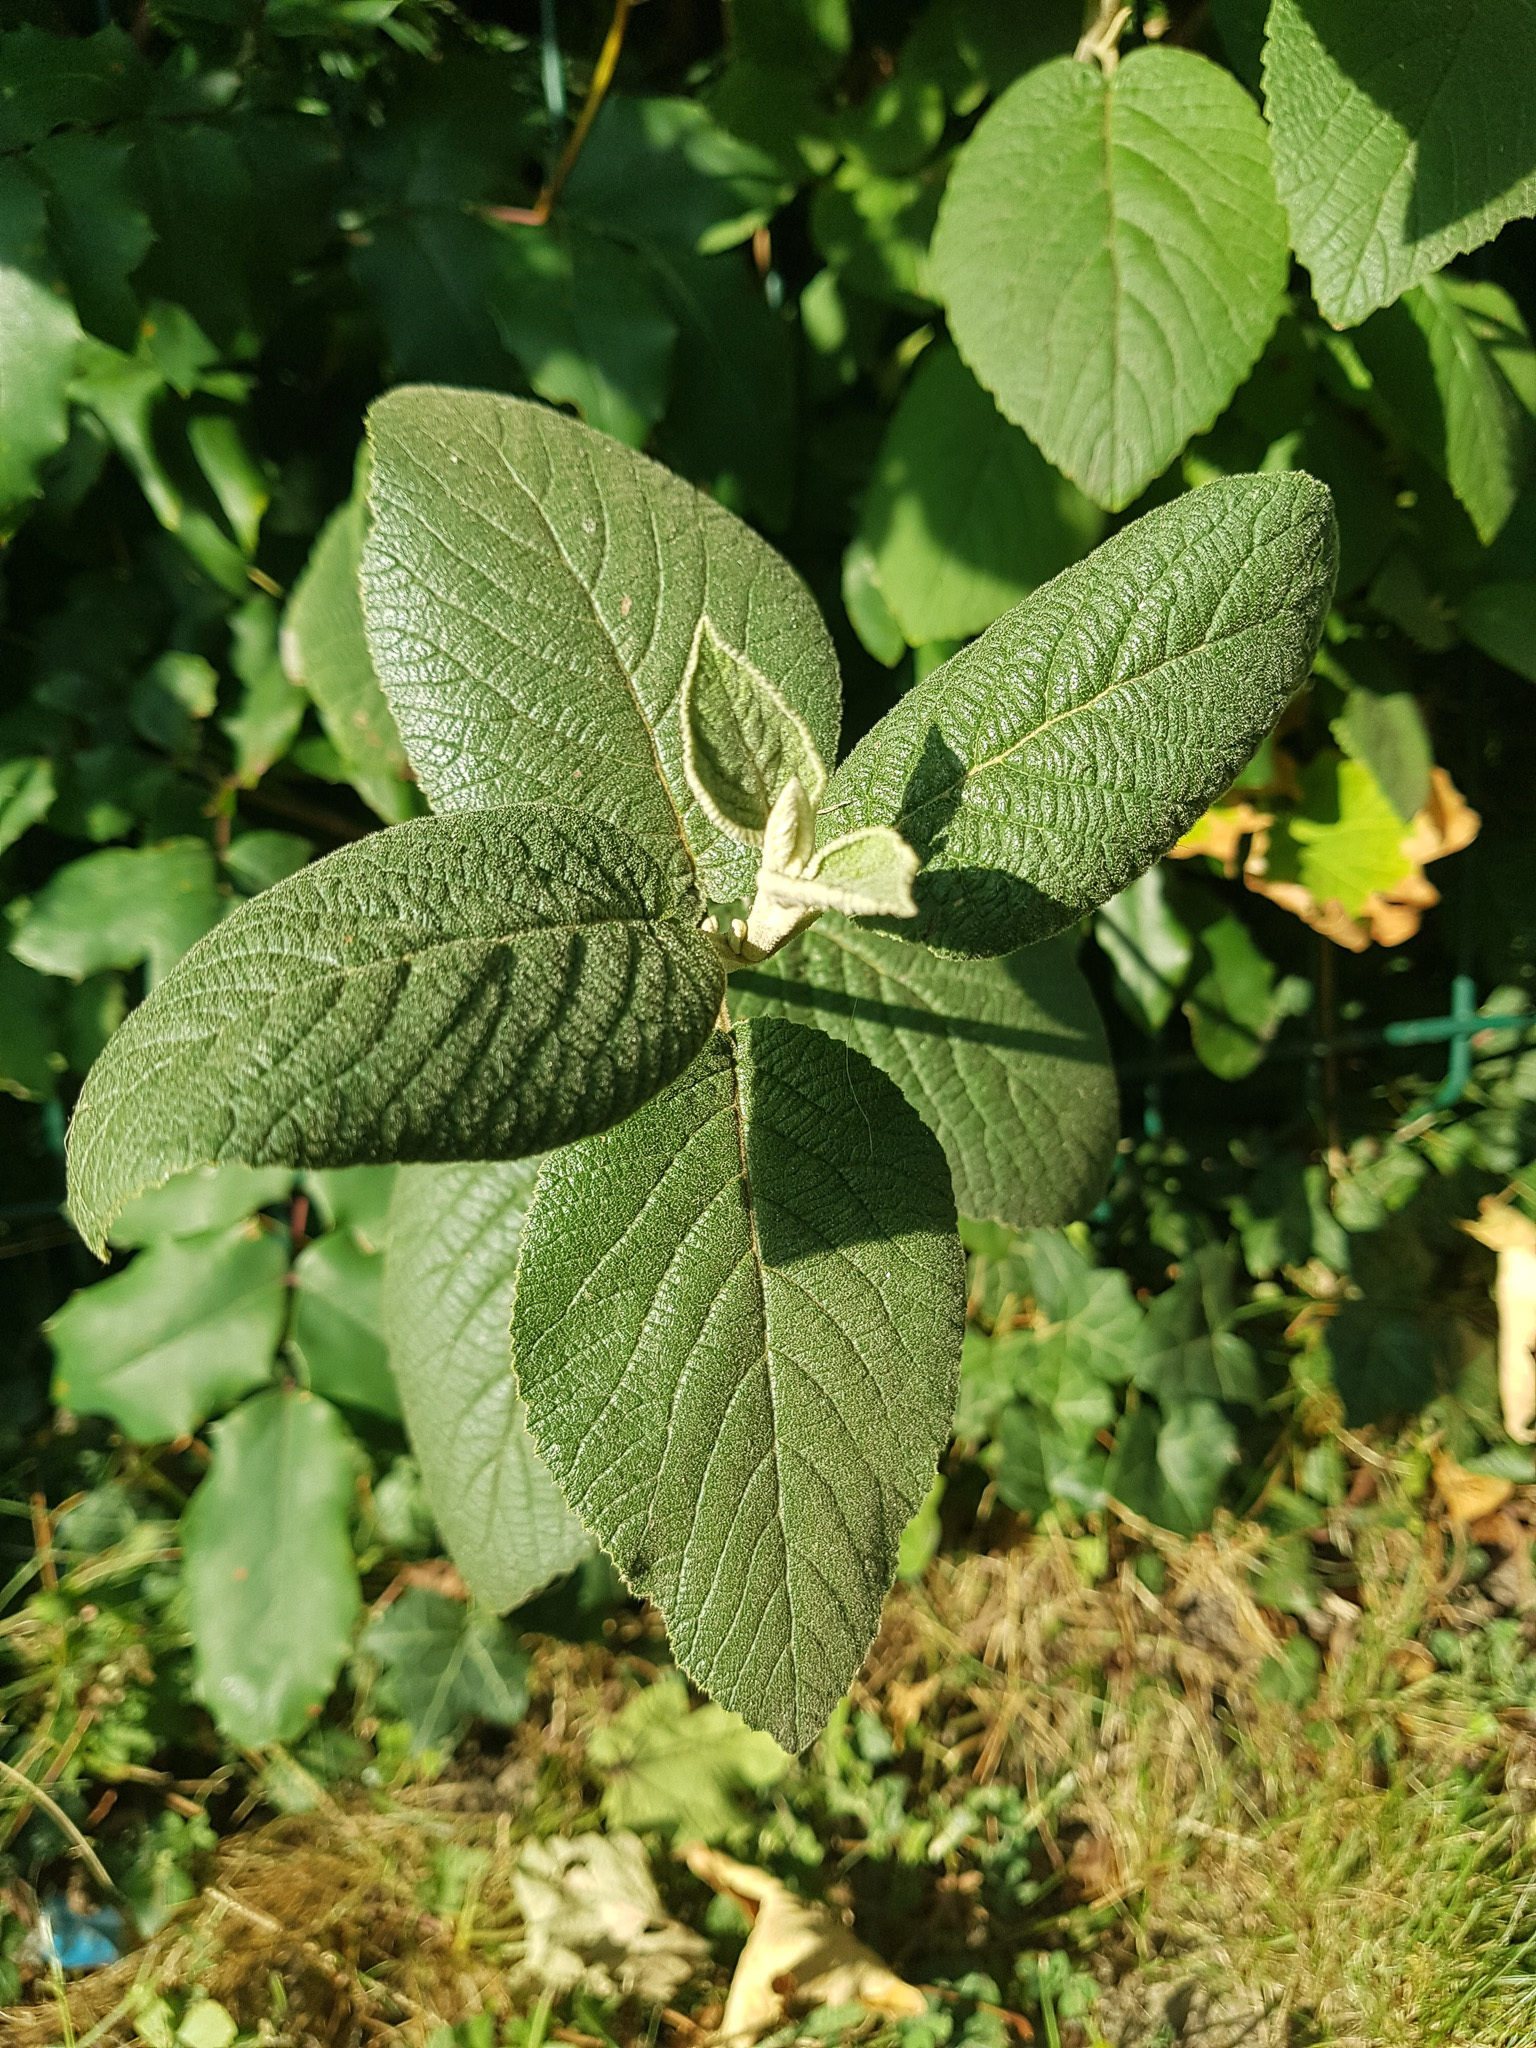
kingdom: Plantae
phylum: Tracheophyta
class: Magnoliopsida
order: Dipsacales
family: Viburnaceae
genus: Viburnum
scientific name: Viburnum lantana
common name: Wayfaring tree
